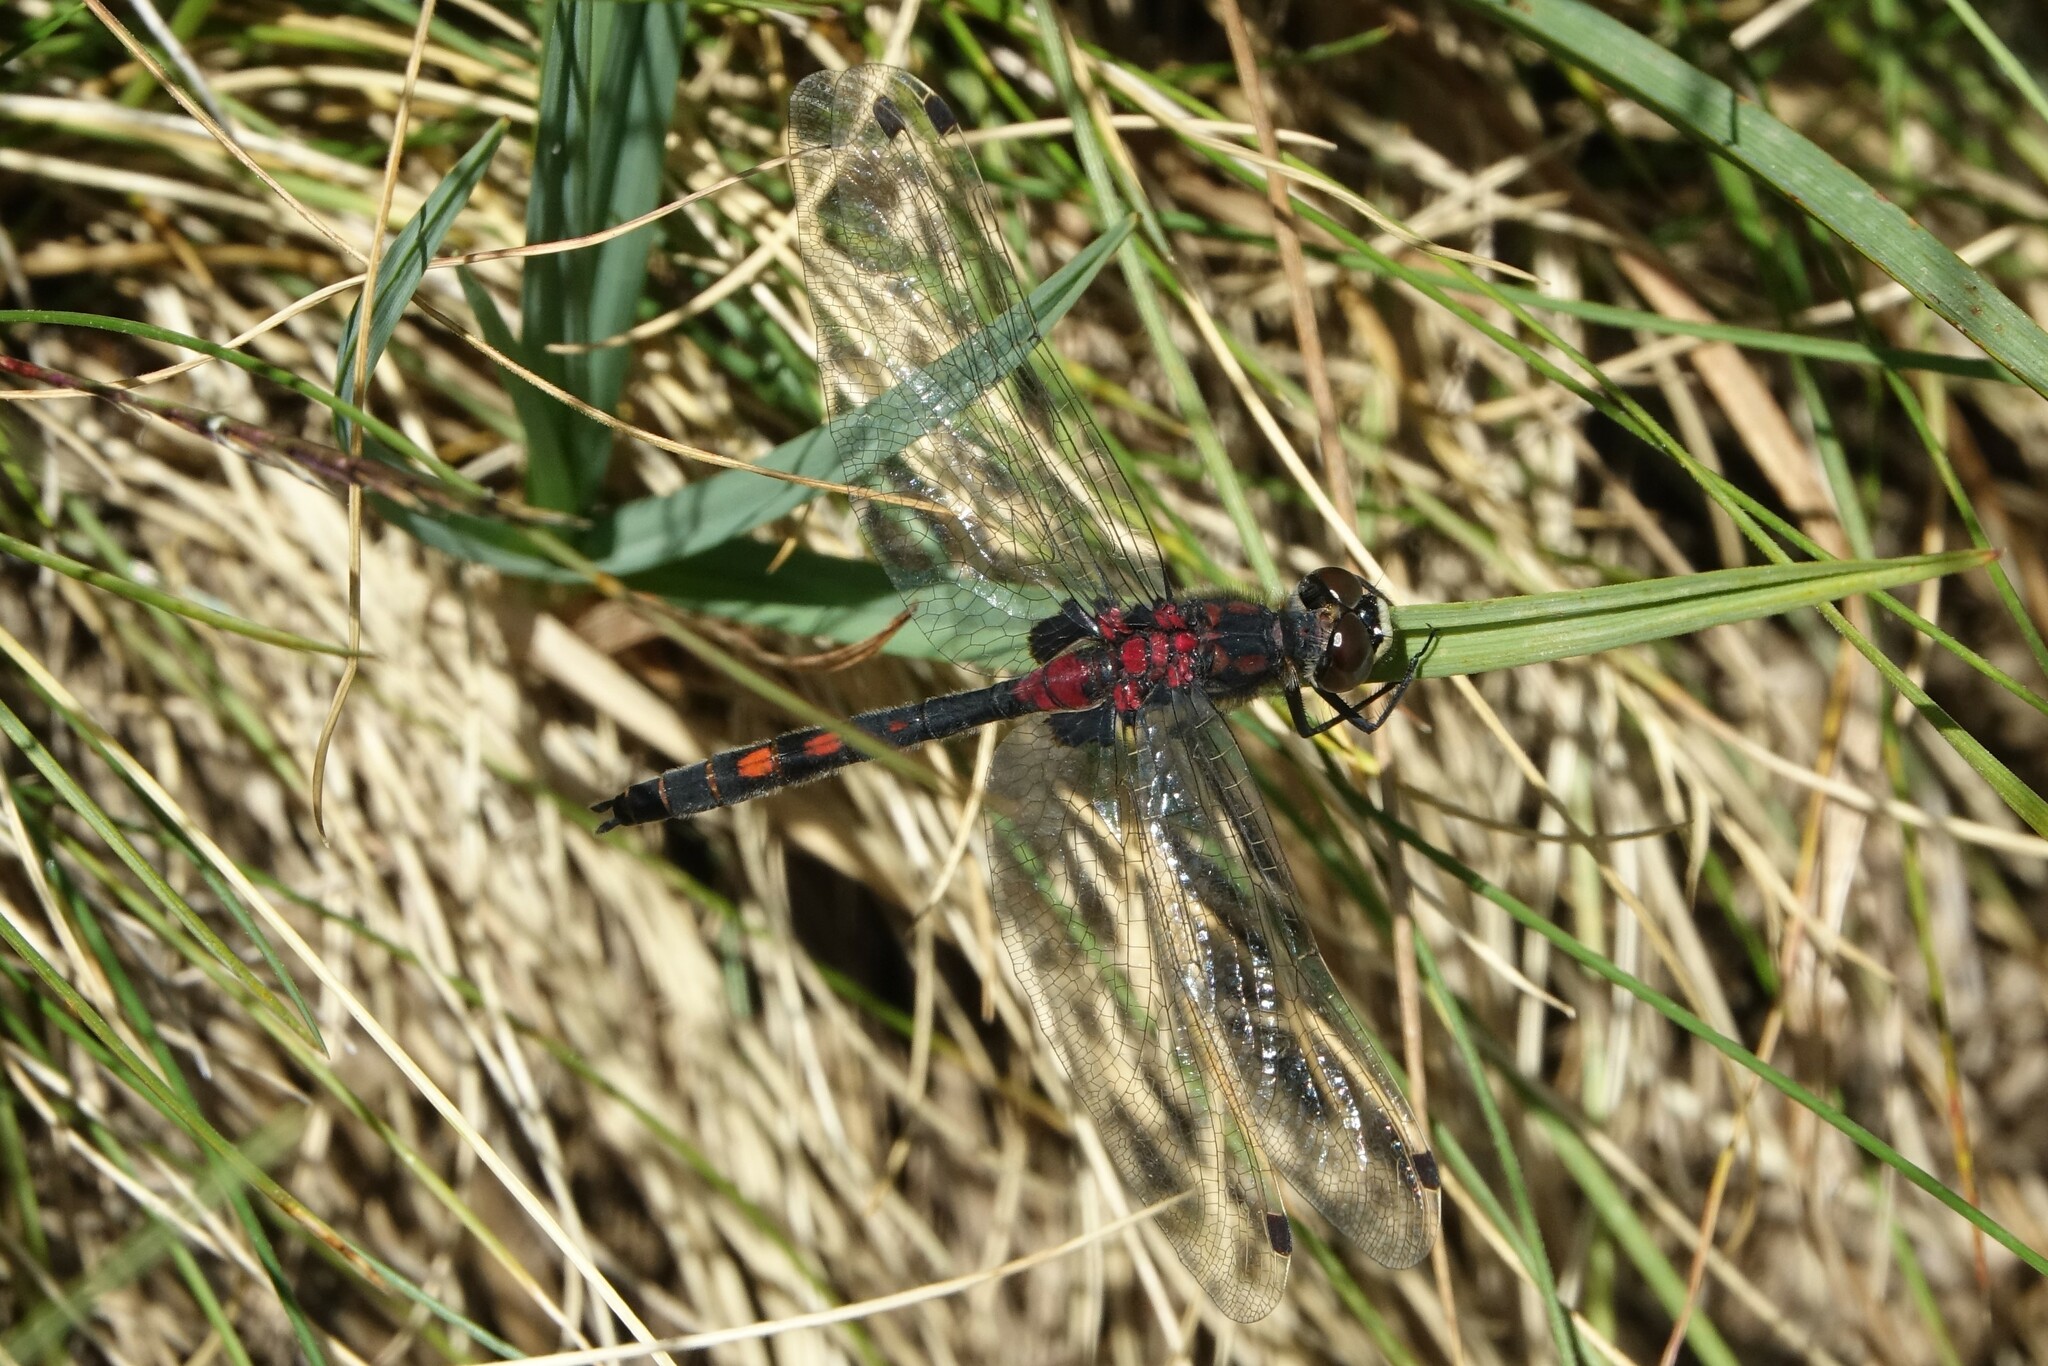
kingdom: Animalia
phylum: Arthropoda
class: Insecta
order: Odonata
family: Libellulidae
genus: Leucorrhinia
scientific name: Leucorrhinia dubia
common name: White-faced darter
